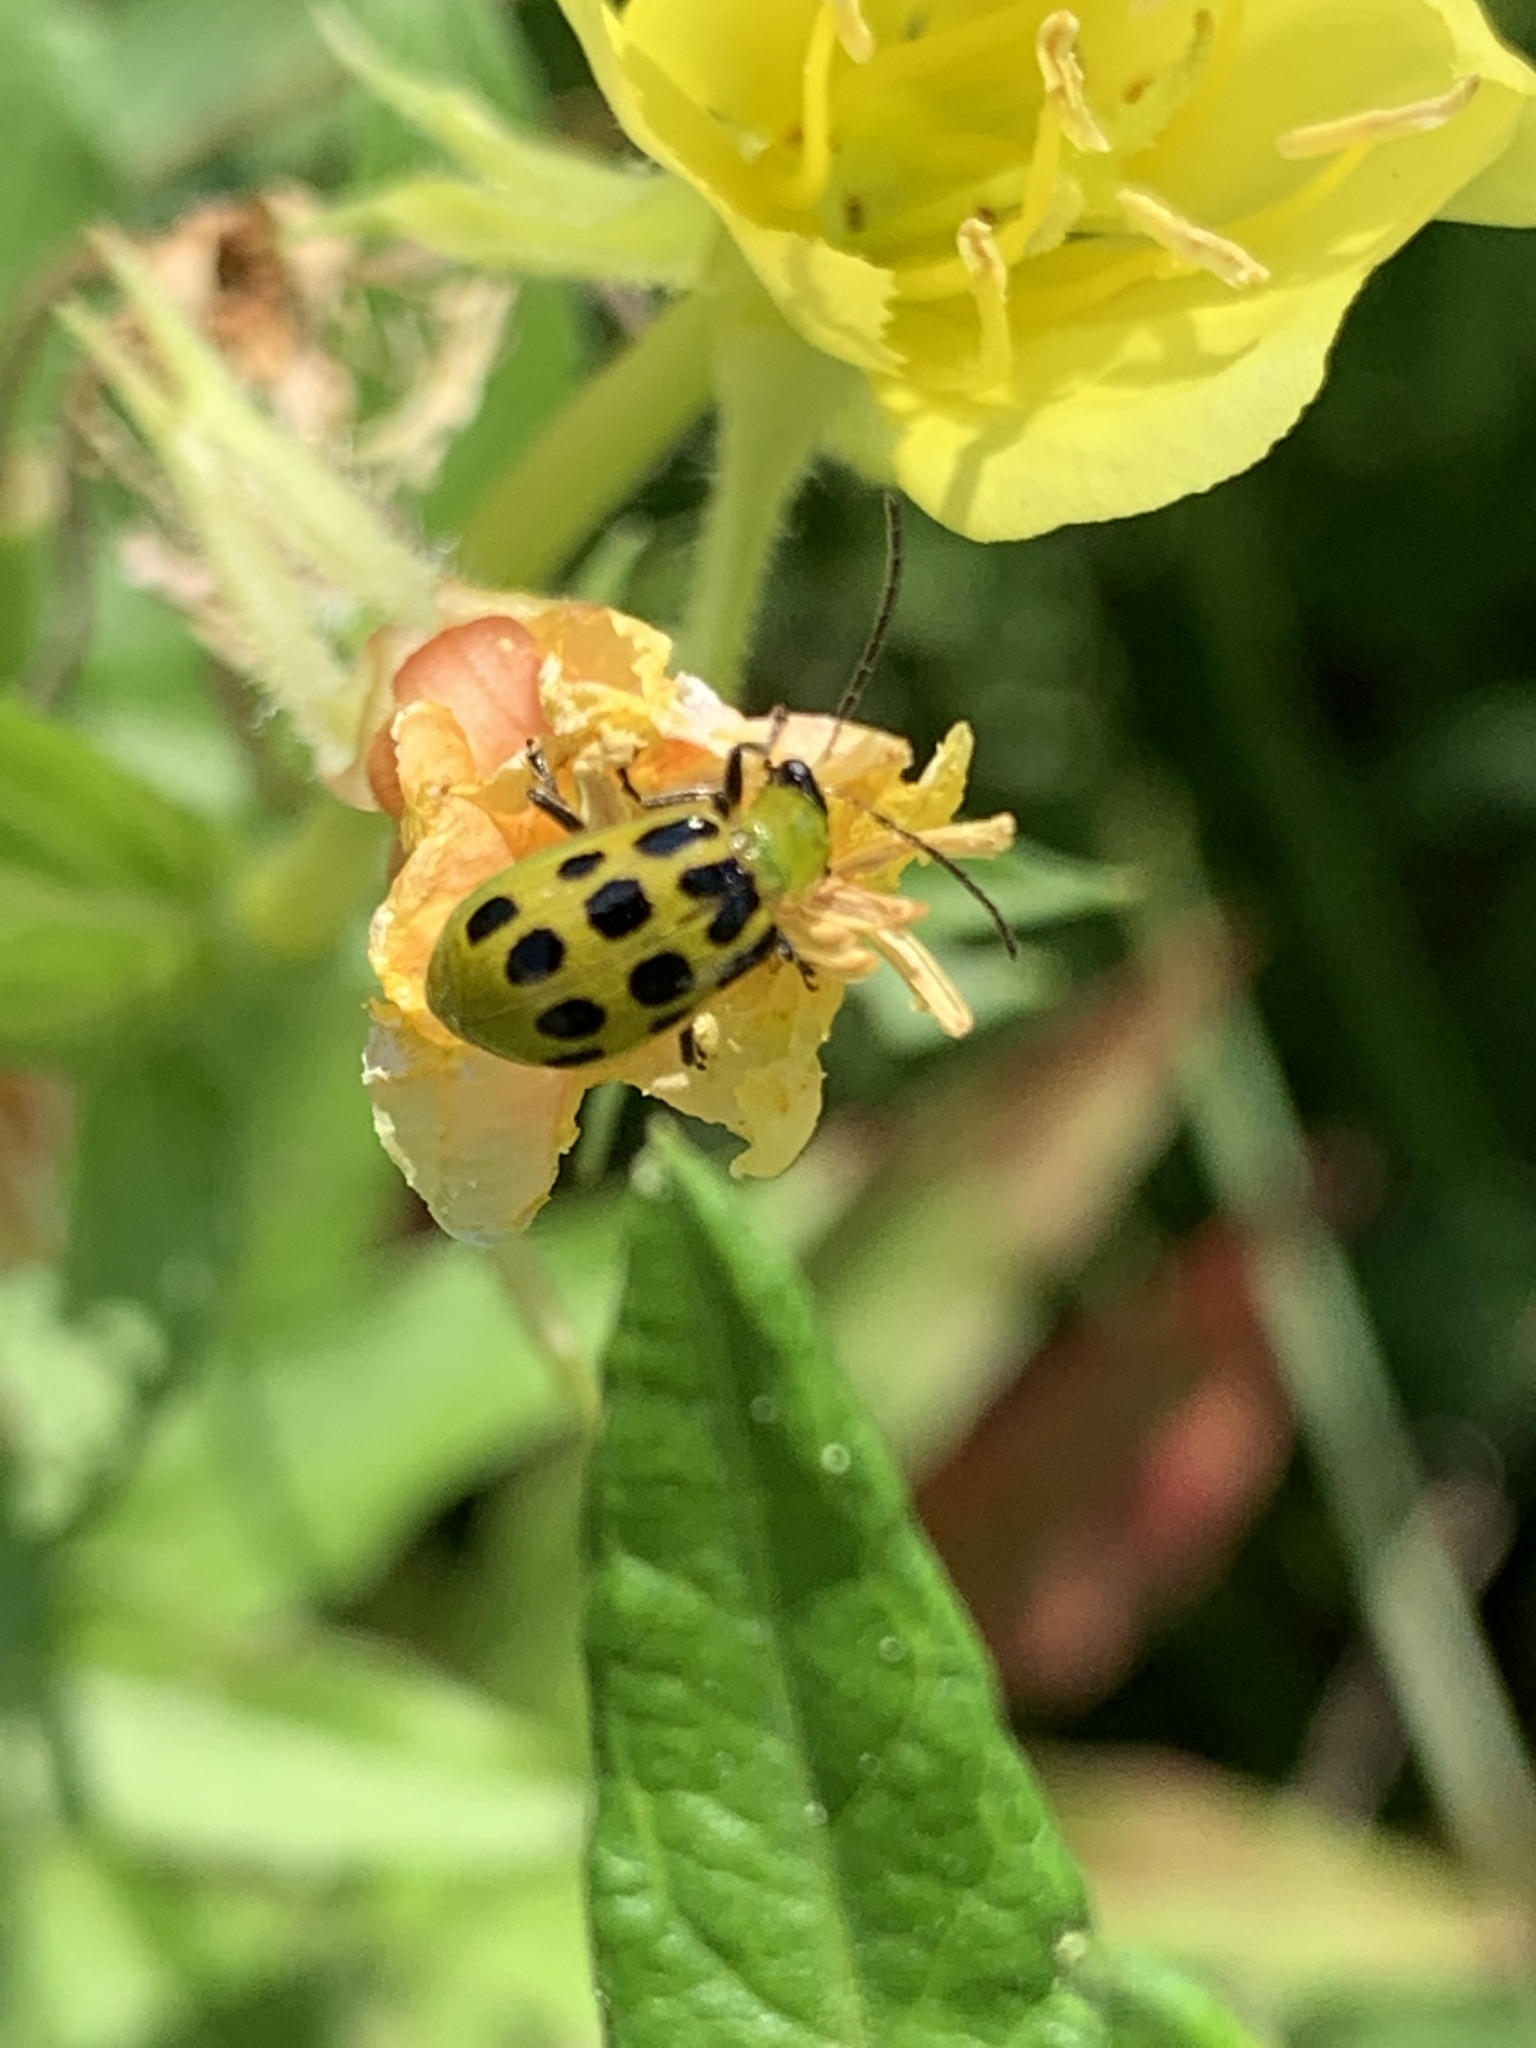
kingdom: Animalia
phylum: Arthropoda
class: Insecta
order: Coleoptera
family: Chrysomelidae
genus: Diabrotica
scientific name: Diabrotica undecimpunctata
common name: Spotted cucumber beetle
